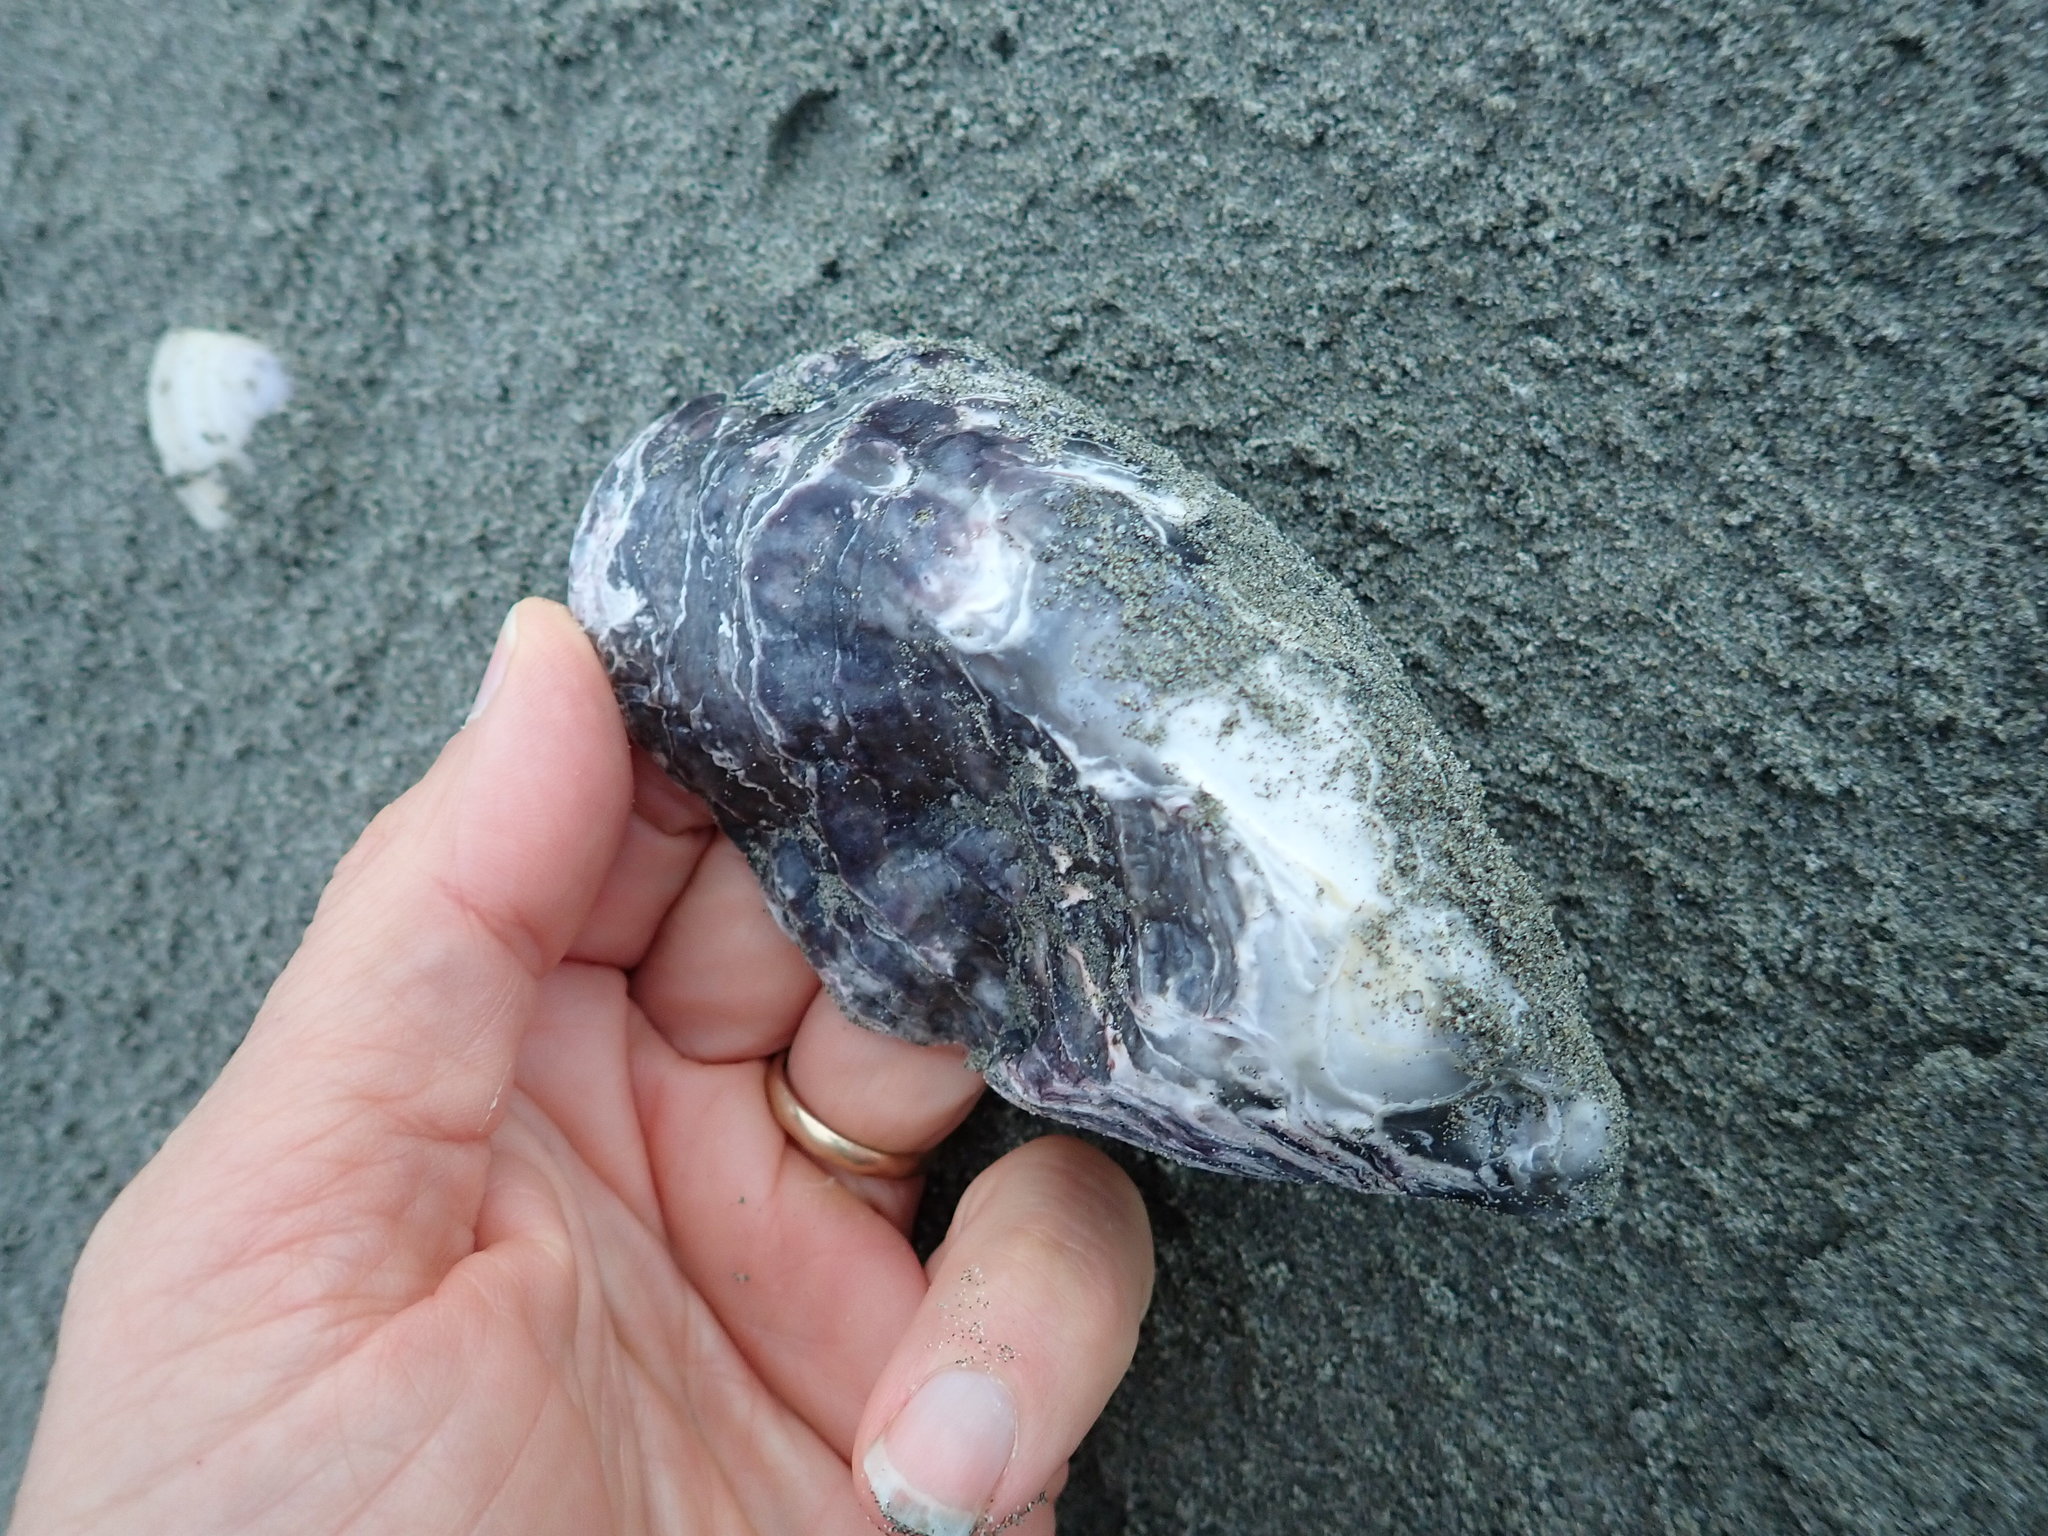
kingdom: Animalia
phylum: Mollusca
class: Bivalvia
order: Ostreida
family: Ostreidae
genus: Magallana
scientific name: Magallana gigas
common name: Pacific oyster
